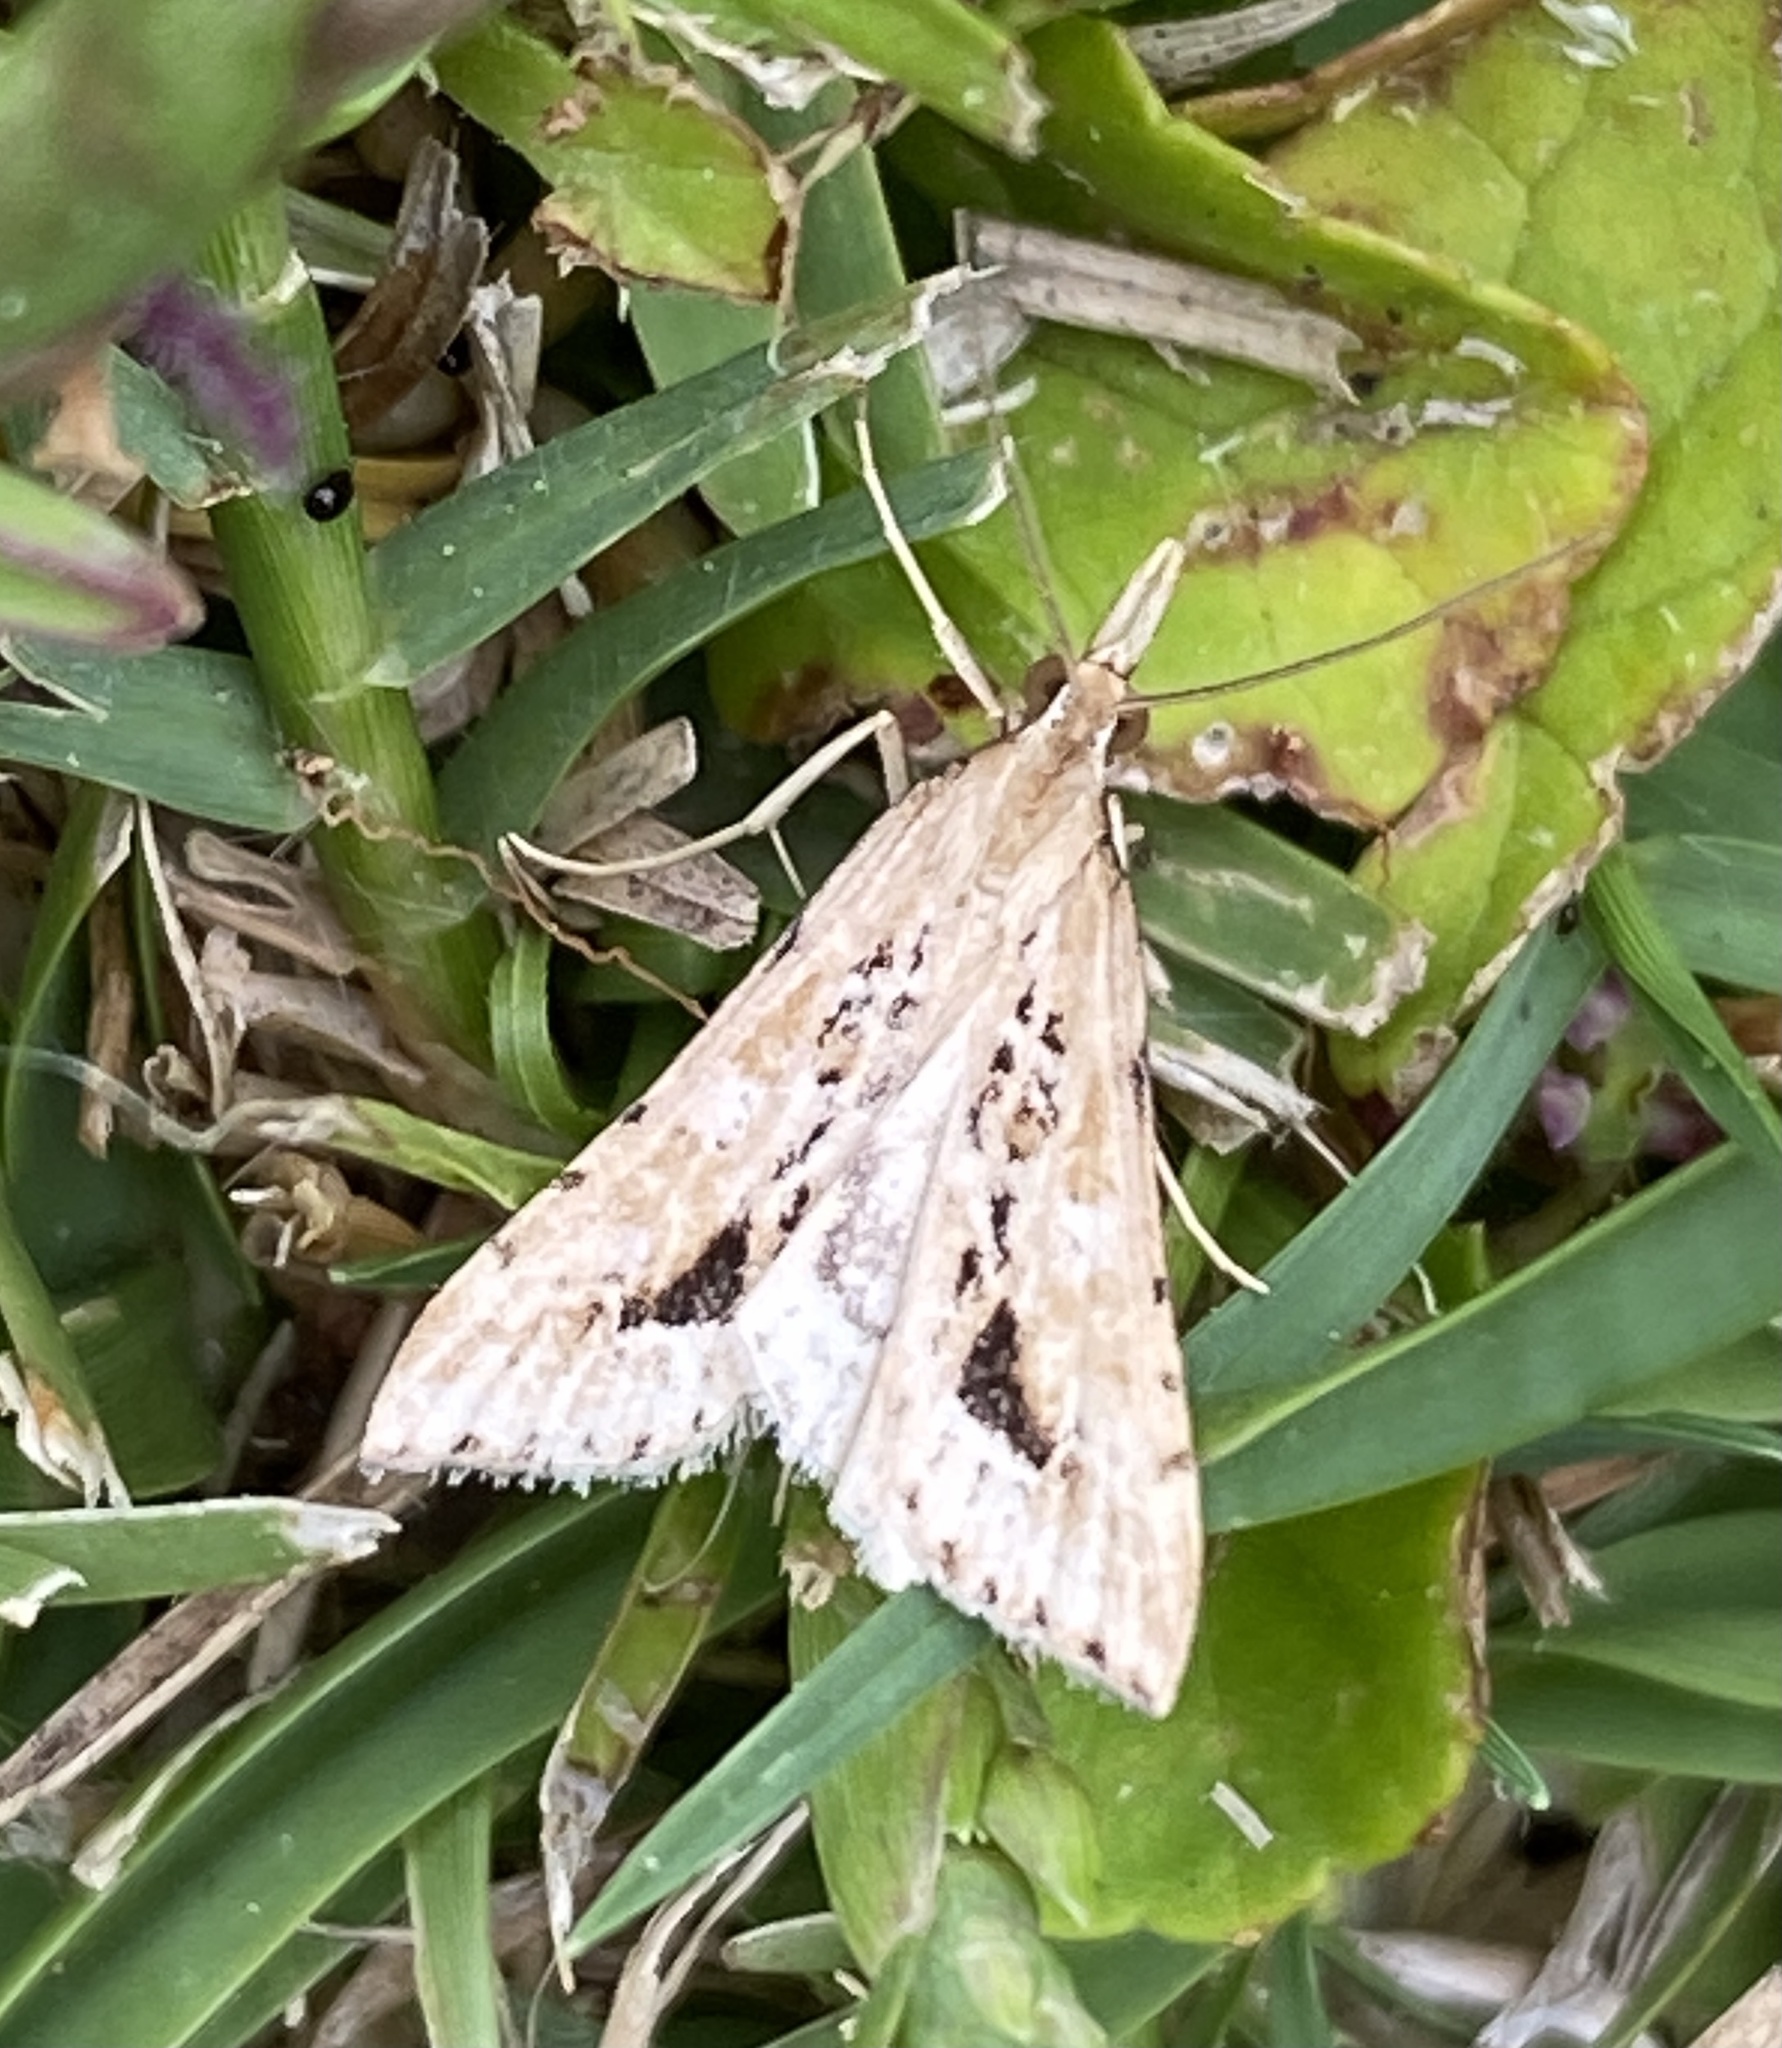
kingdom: Animalia
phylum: Arthropoda
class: Insecta
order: Lepidoptera
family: Crambidae
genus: Diasemia
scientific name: Diasemia monostigma
